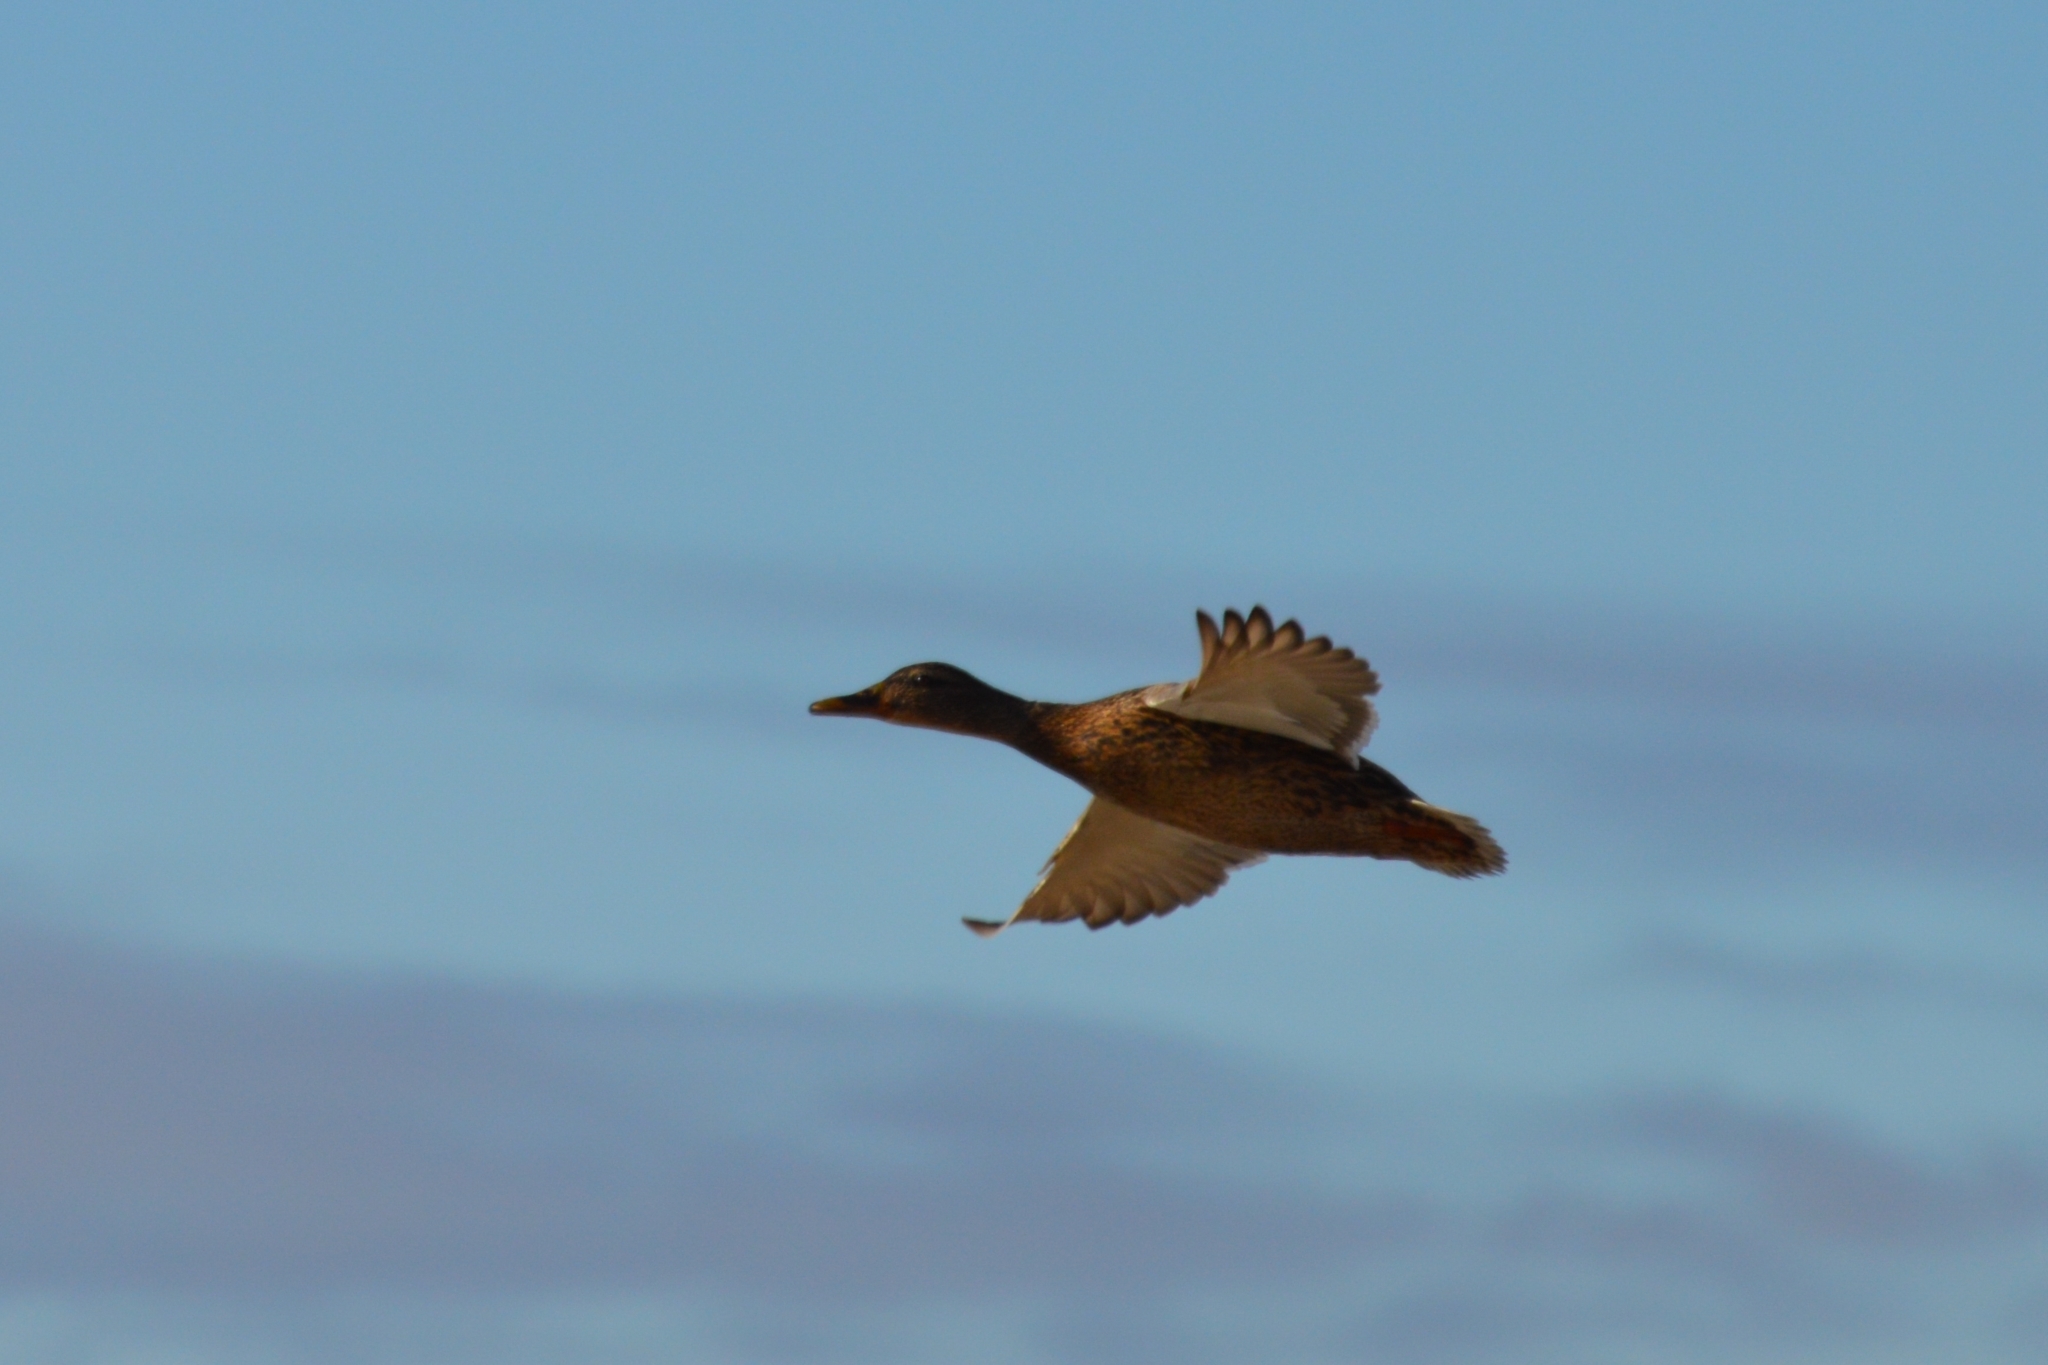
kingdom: Animalia
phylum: Chordata
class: Aves
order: Anseriformes
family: Anatidae
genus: Anas
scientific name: Anas platyrhynchos
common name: Mallard
